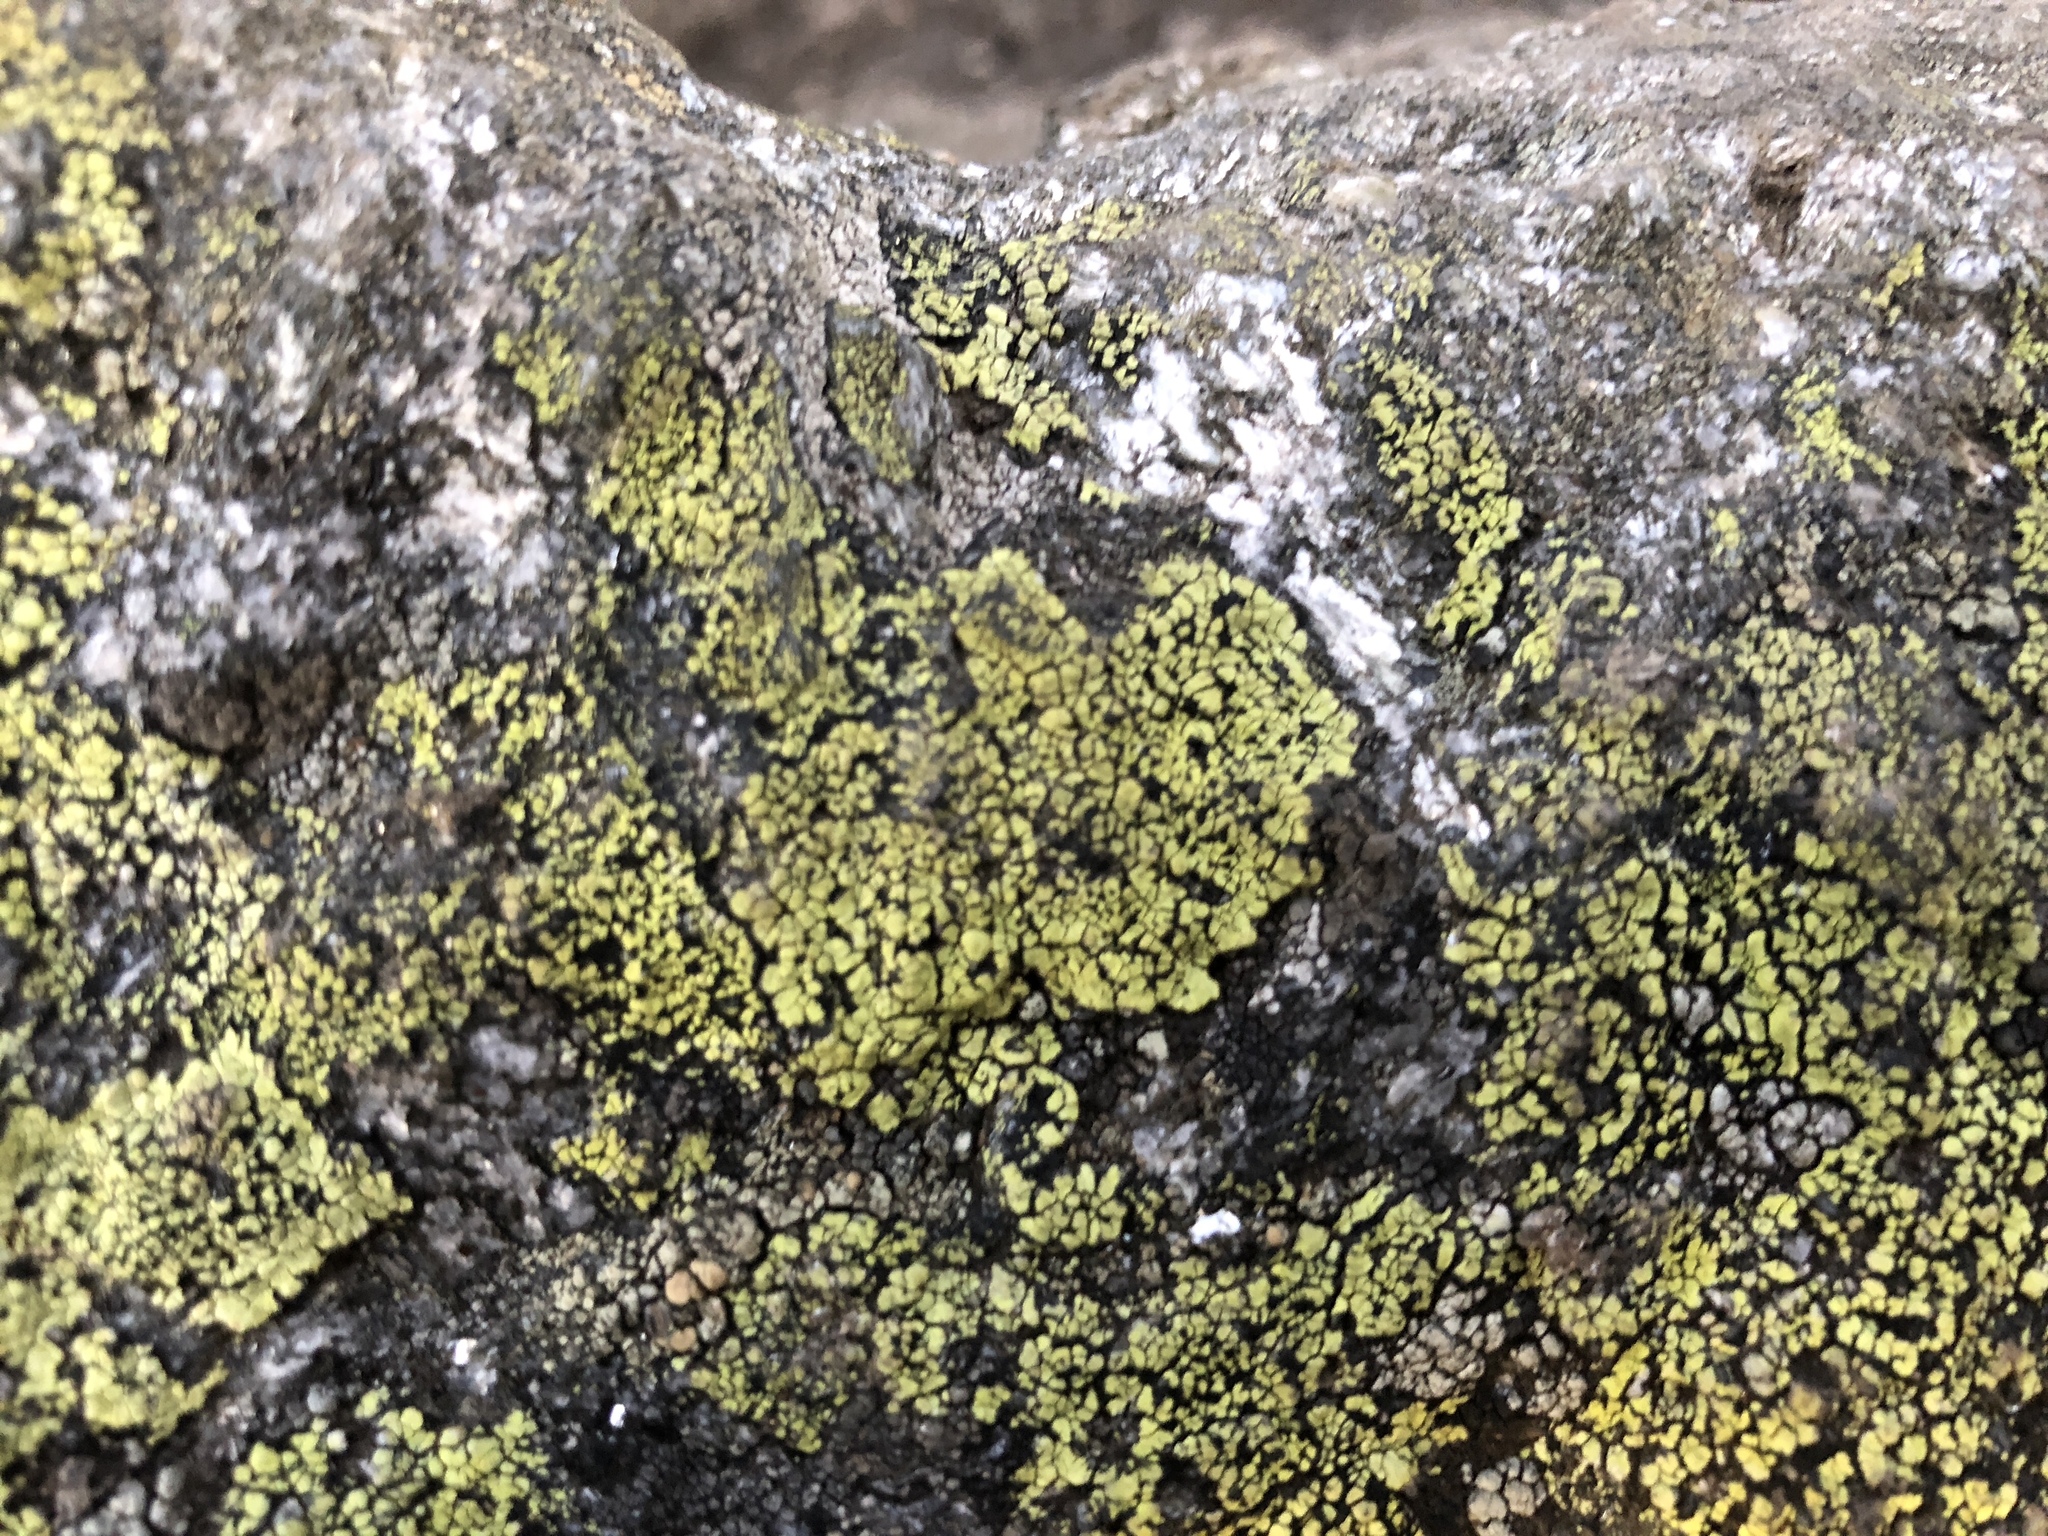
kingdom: Fungi
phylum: Ascomycota
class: Lecanoromycetes
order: Rhizocarpales
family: Rhizocarpaceae
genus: Rhizocarpon
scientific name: Rhizocarpon geographicum
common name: Yellow map lichen
